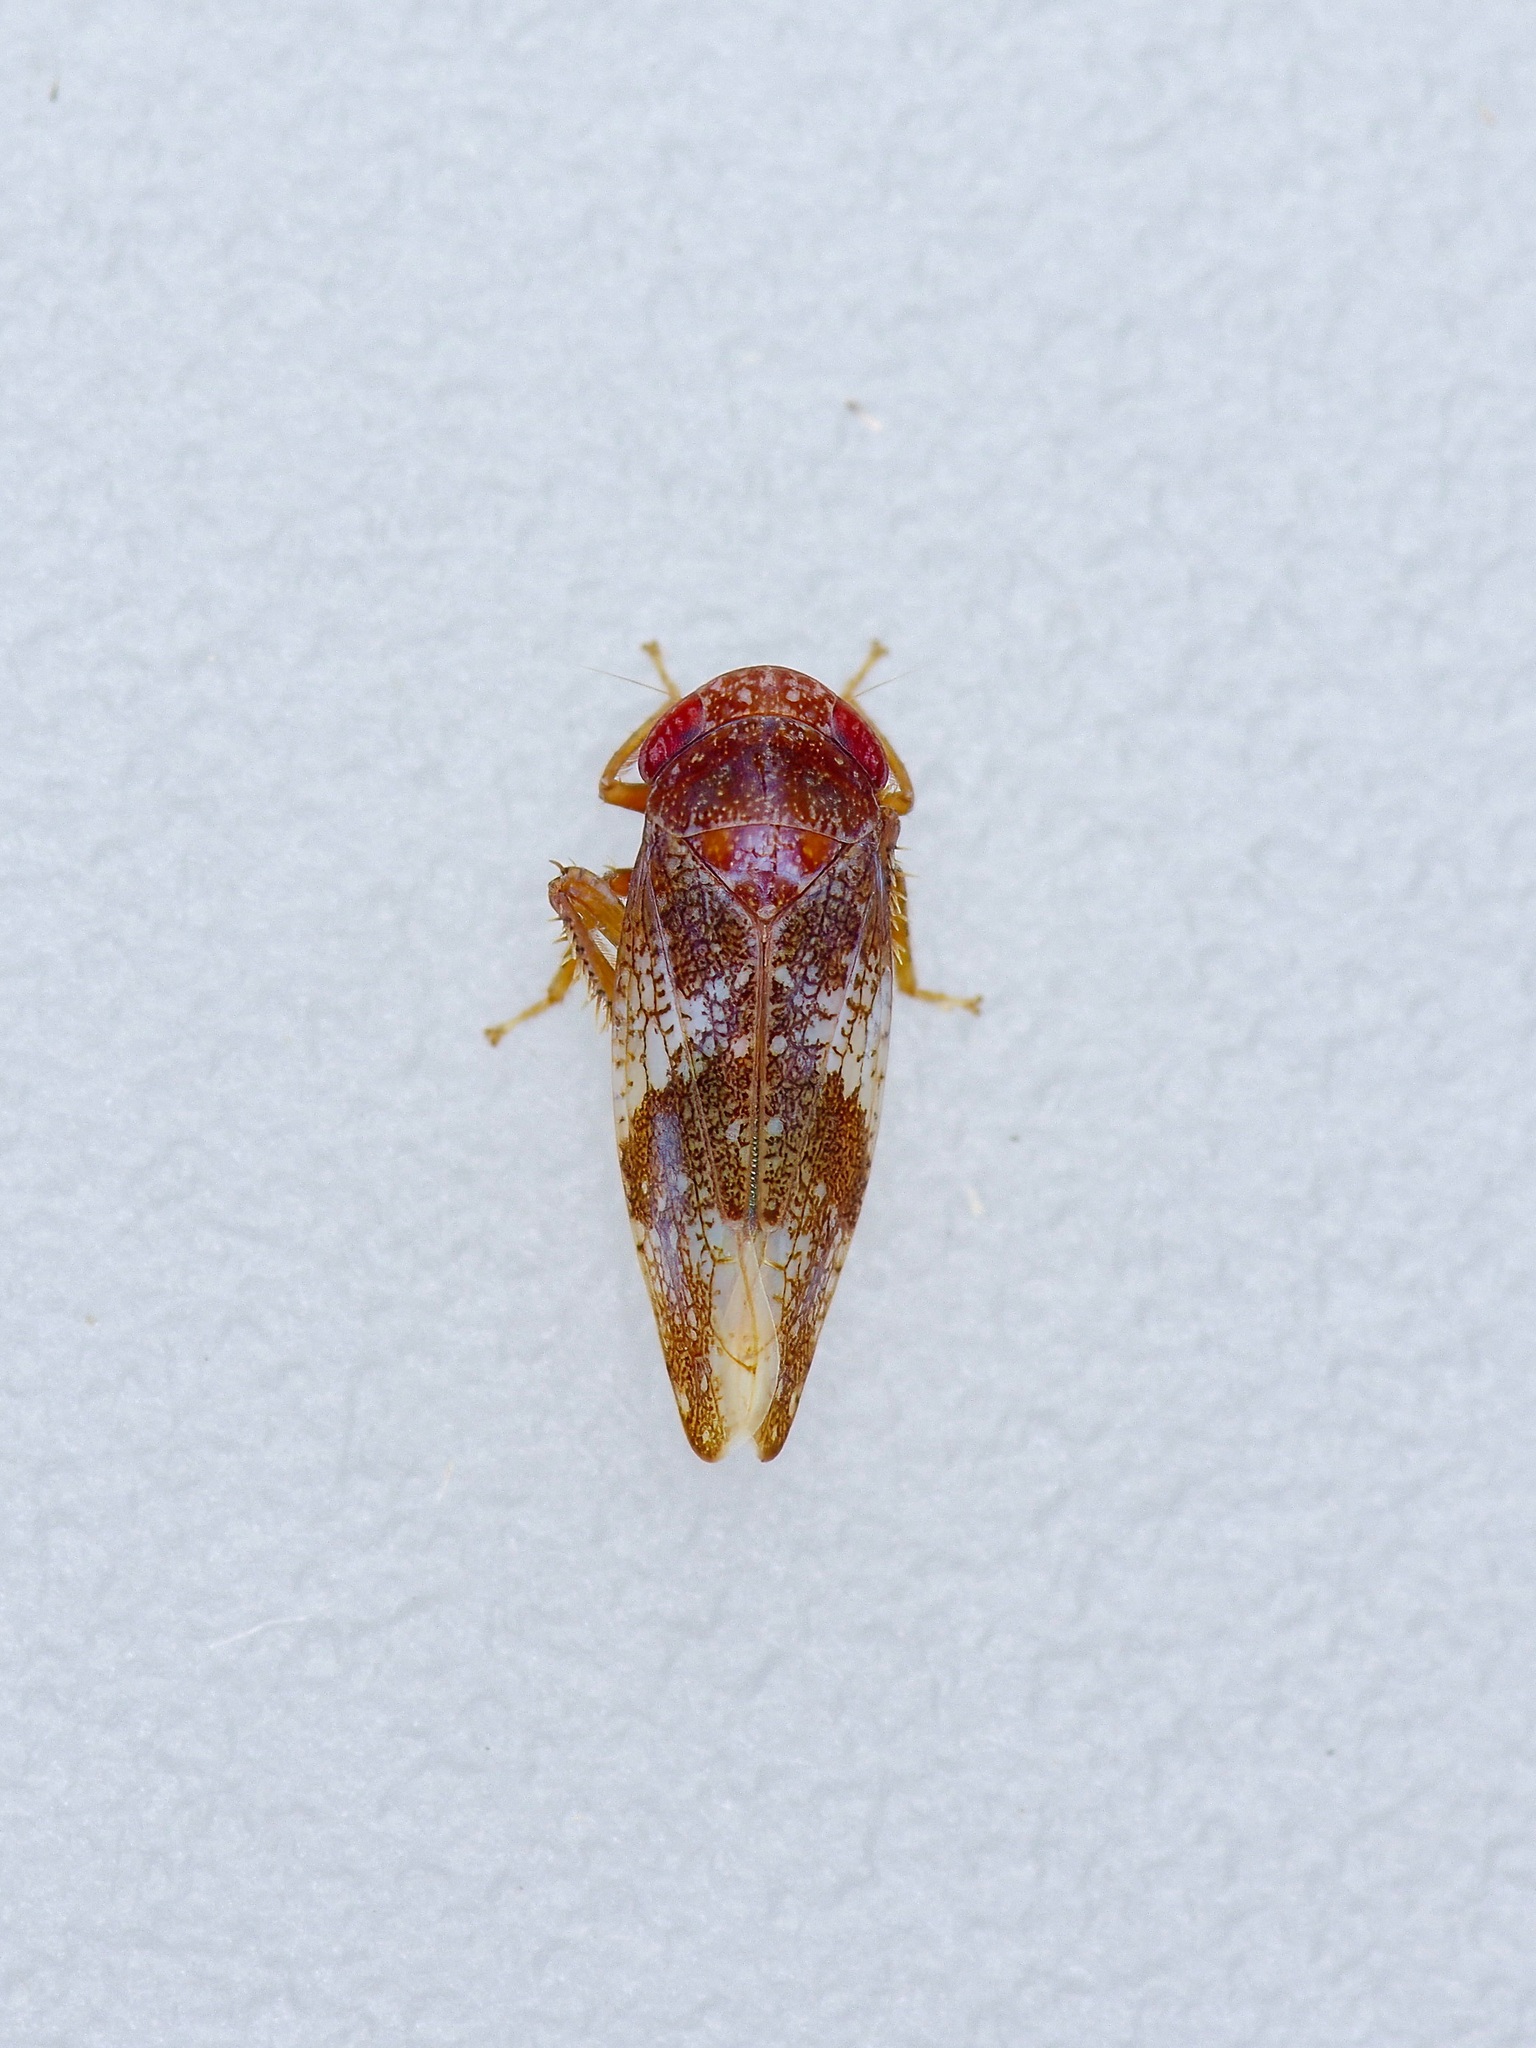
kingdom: Animalia
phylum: Arthropoda
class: Insecta
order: Hemiptera
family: Cicadellidae
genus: Norvellina
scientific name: Norvellina helenae
